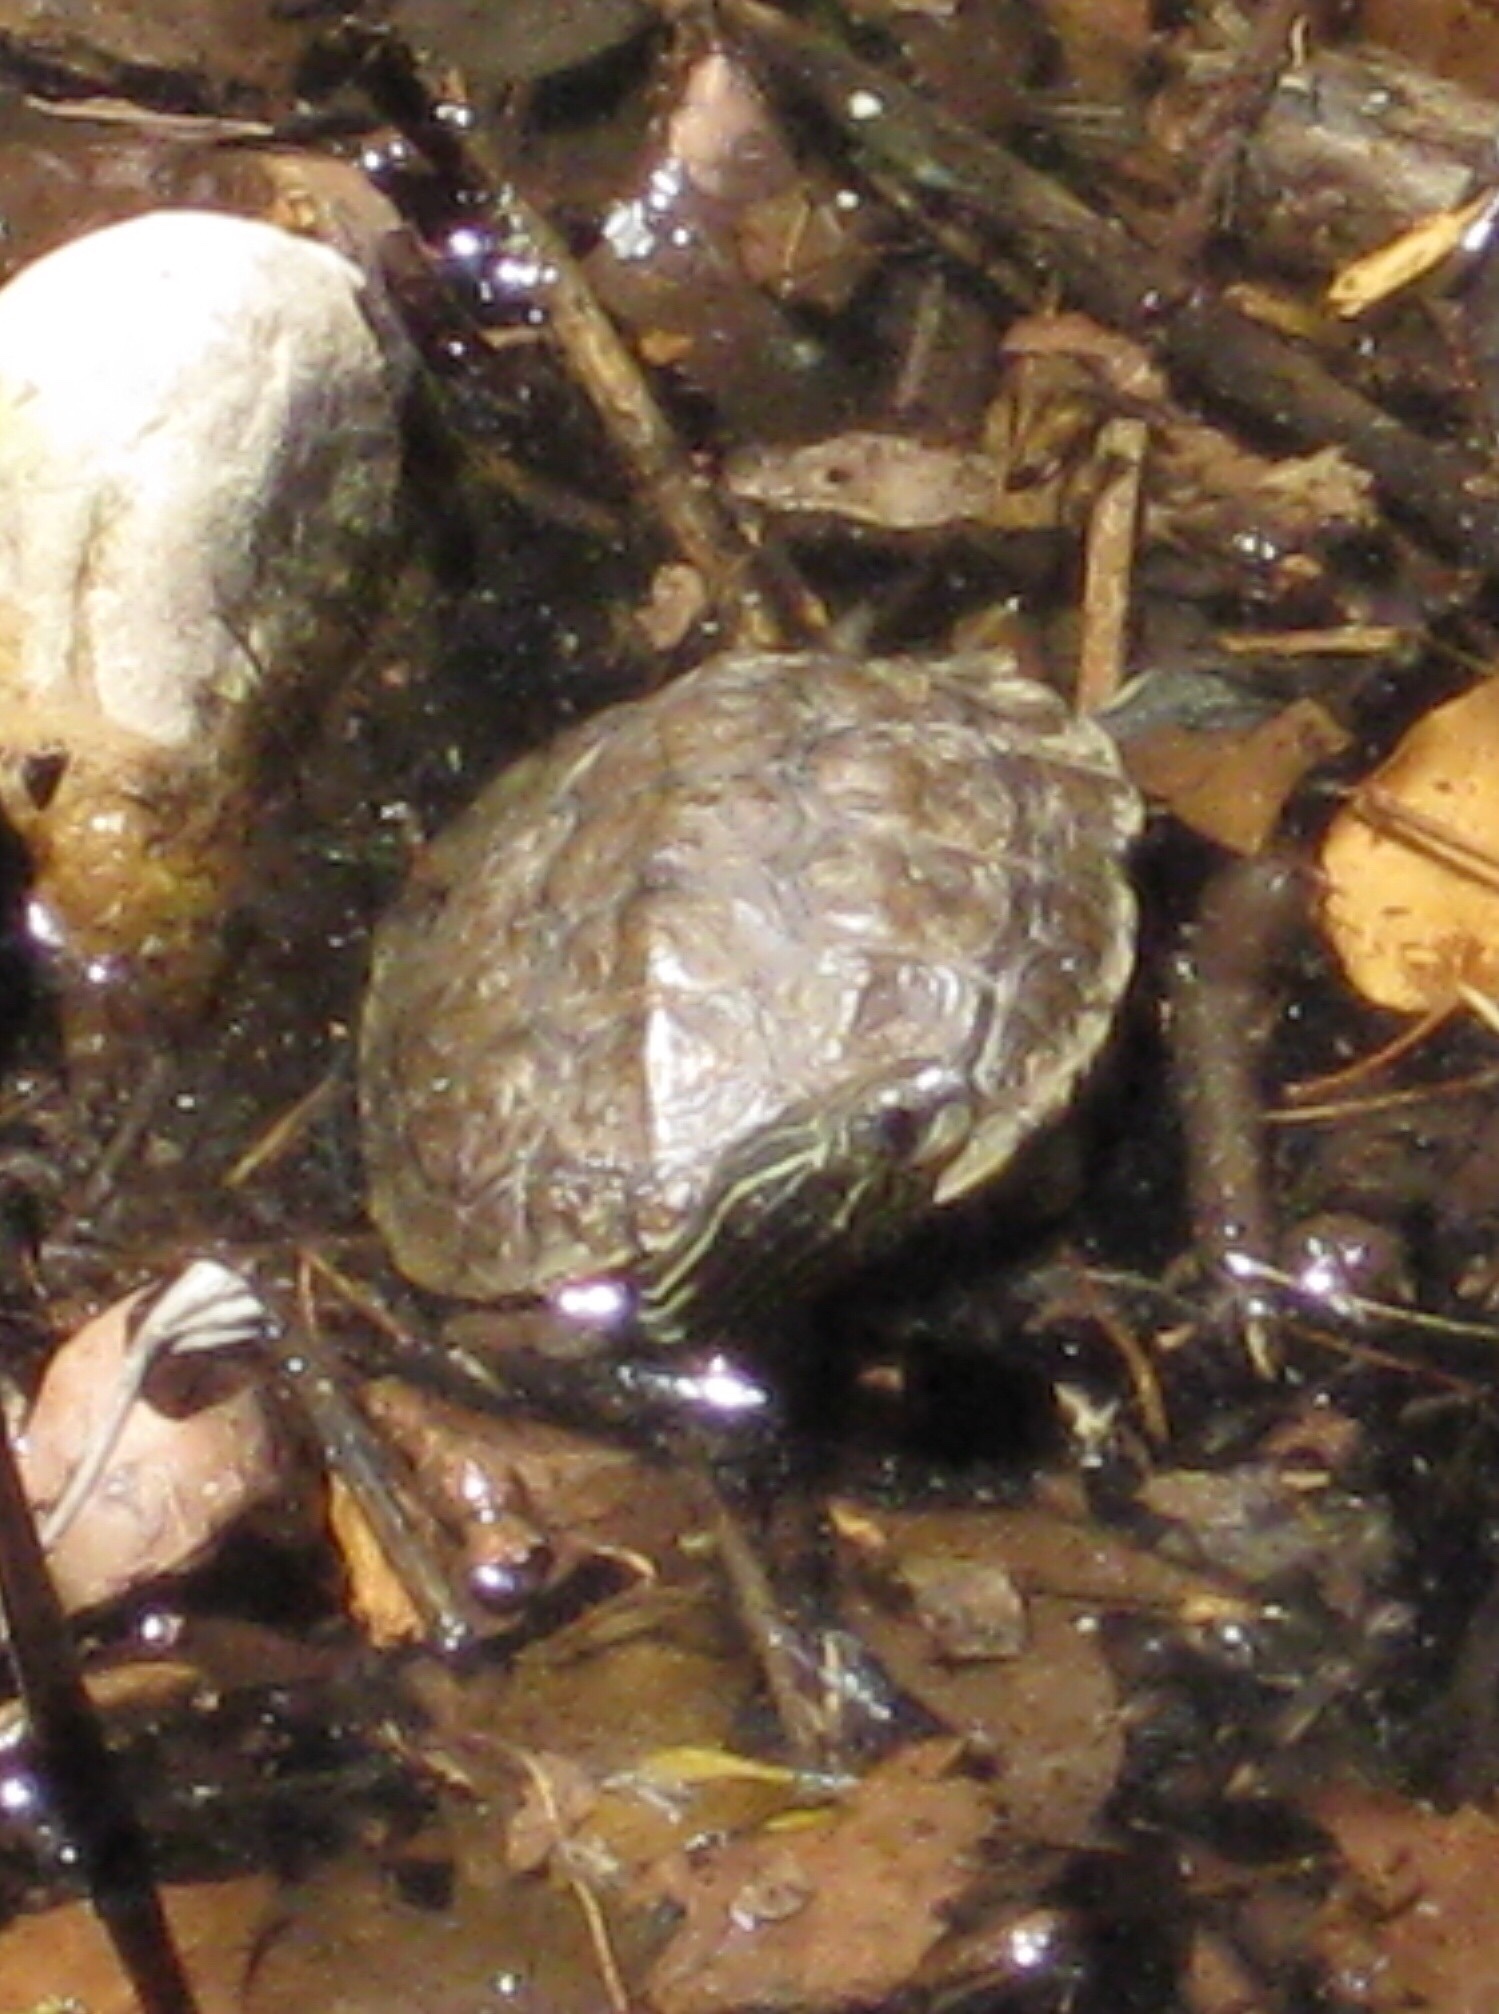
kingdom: Animalia
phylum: Chordata
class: Testudines
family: Geoemydidae
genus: Mauremys
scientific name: Mauremys rivulata
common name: Western caspian turtle
